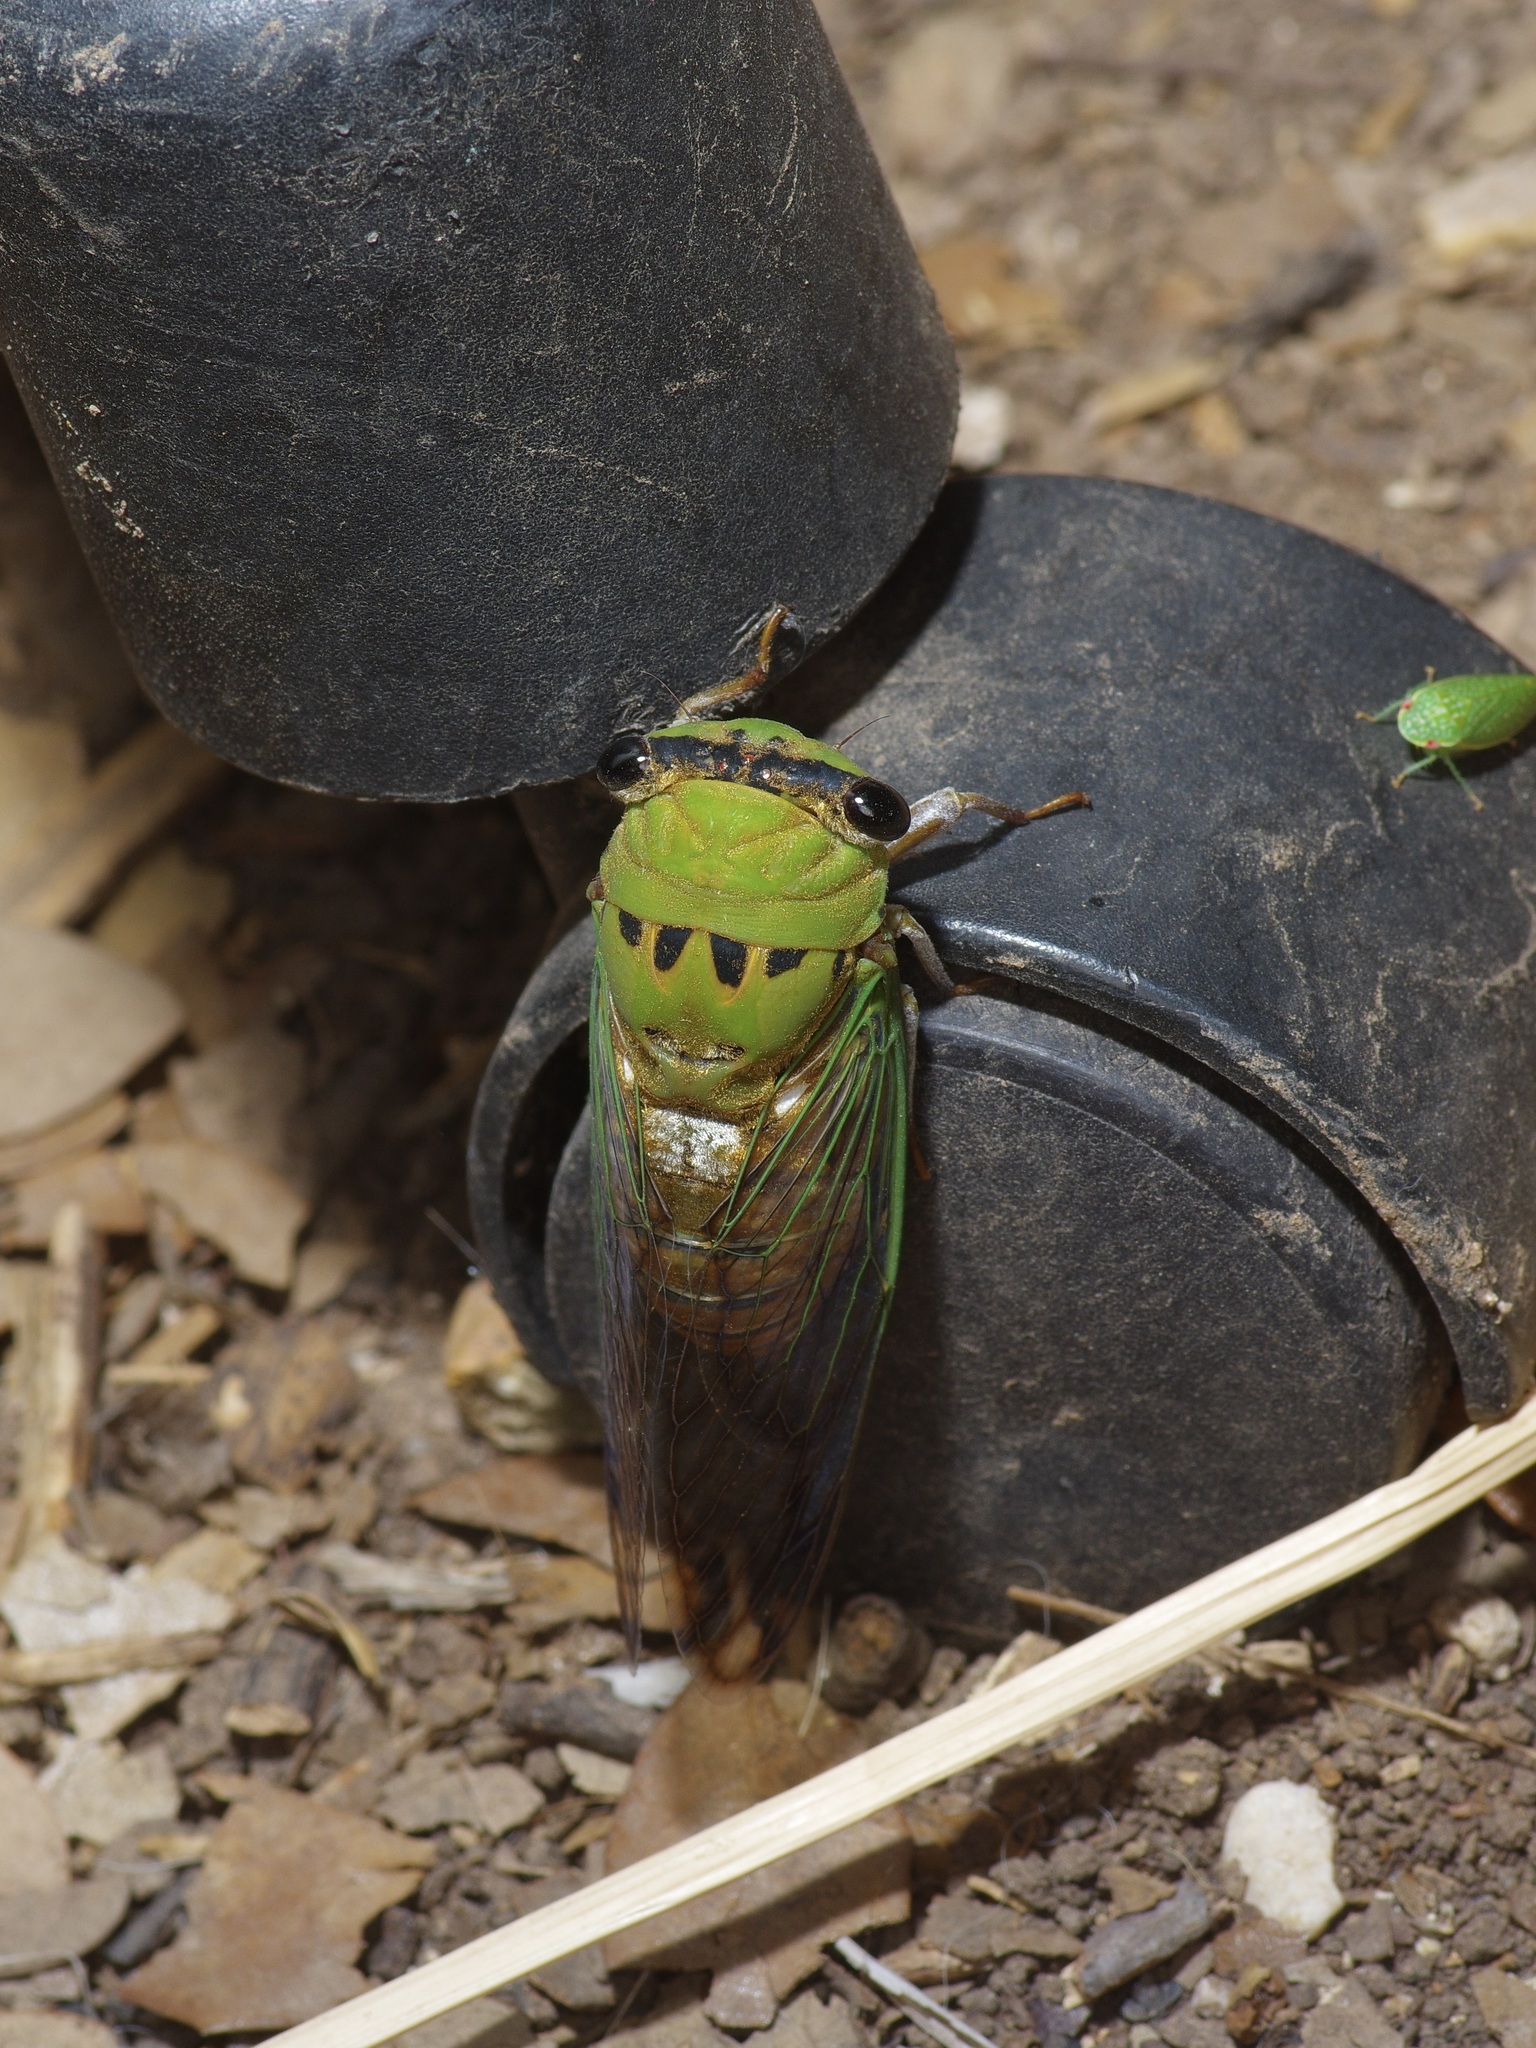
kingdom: Animalia
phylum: Arthropoda
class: Insecta
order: Hemiptera
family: Cicadidae
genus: Neotibicen
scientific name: Neotibicen superbus
